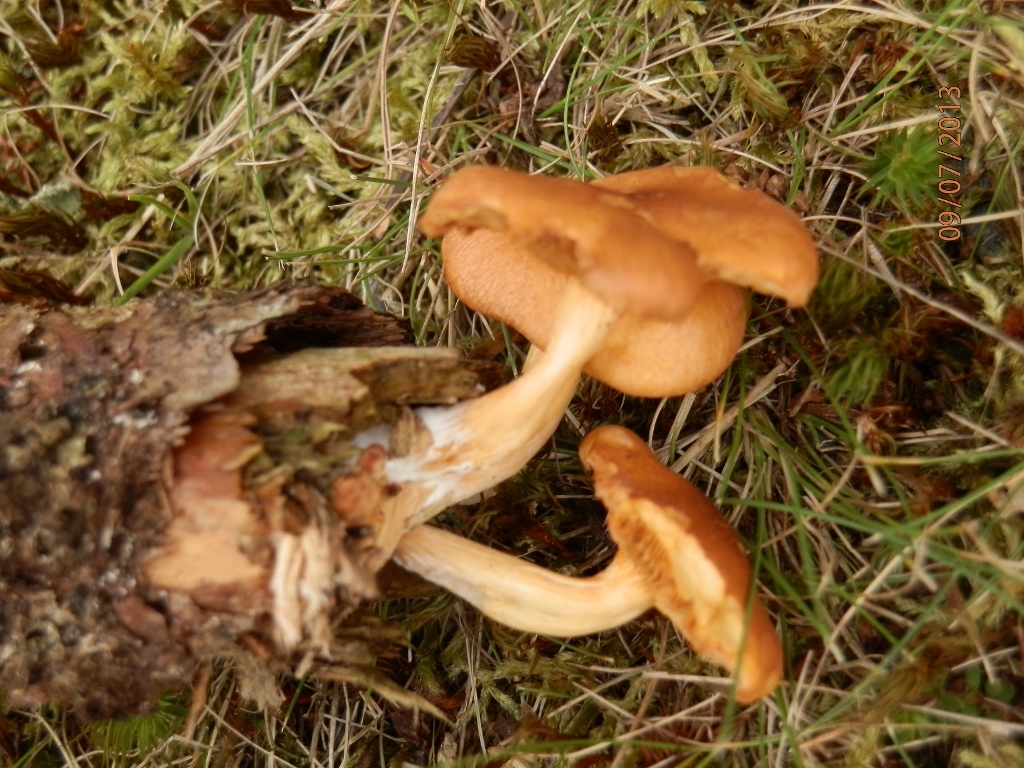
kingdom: Fungi
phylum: Basidiomycota
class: Agaricomycetes
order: Agaricales
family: Hymenogastraceae
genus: Galerina
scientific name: Galerina marginata
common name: Funeral bell
